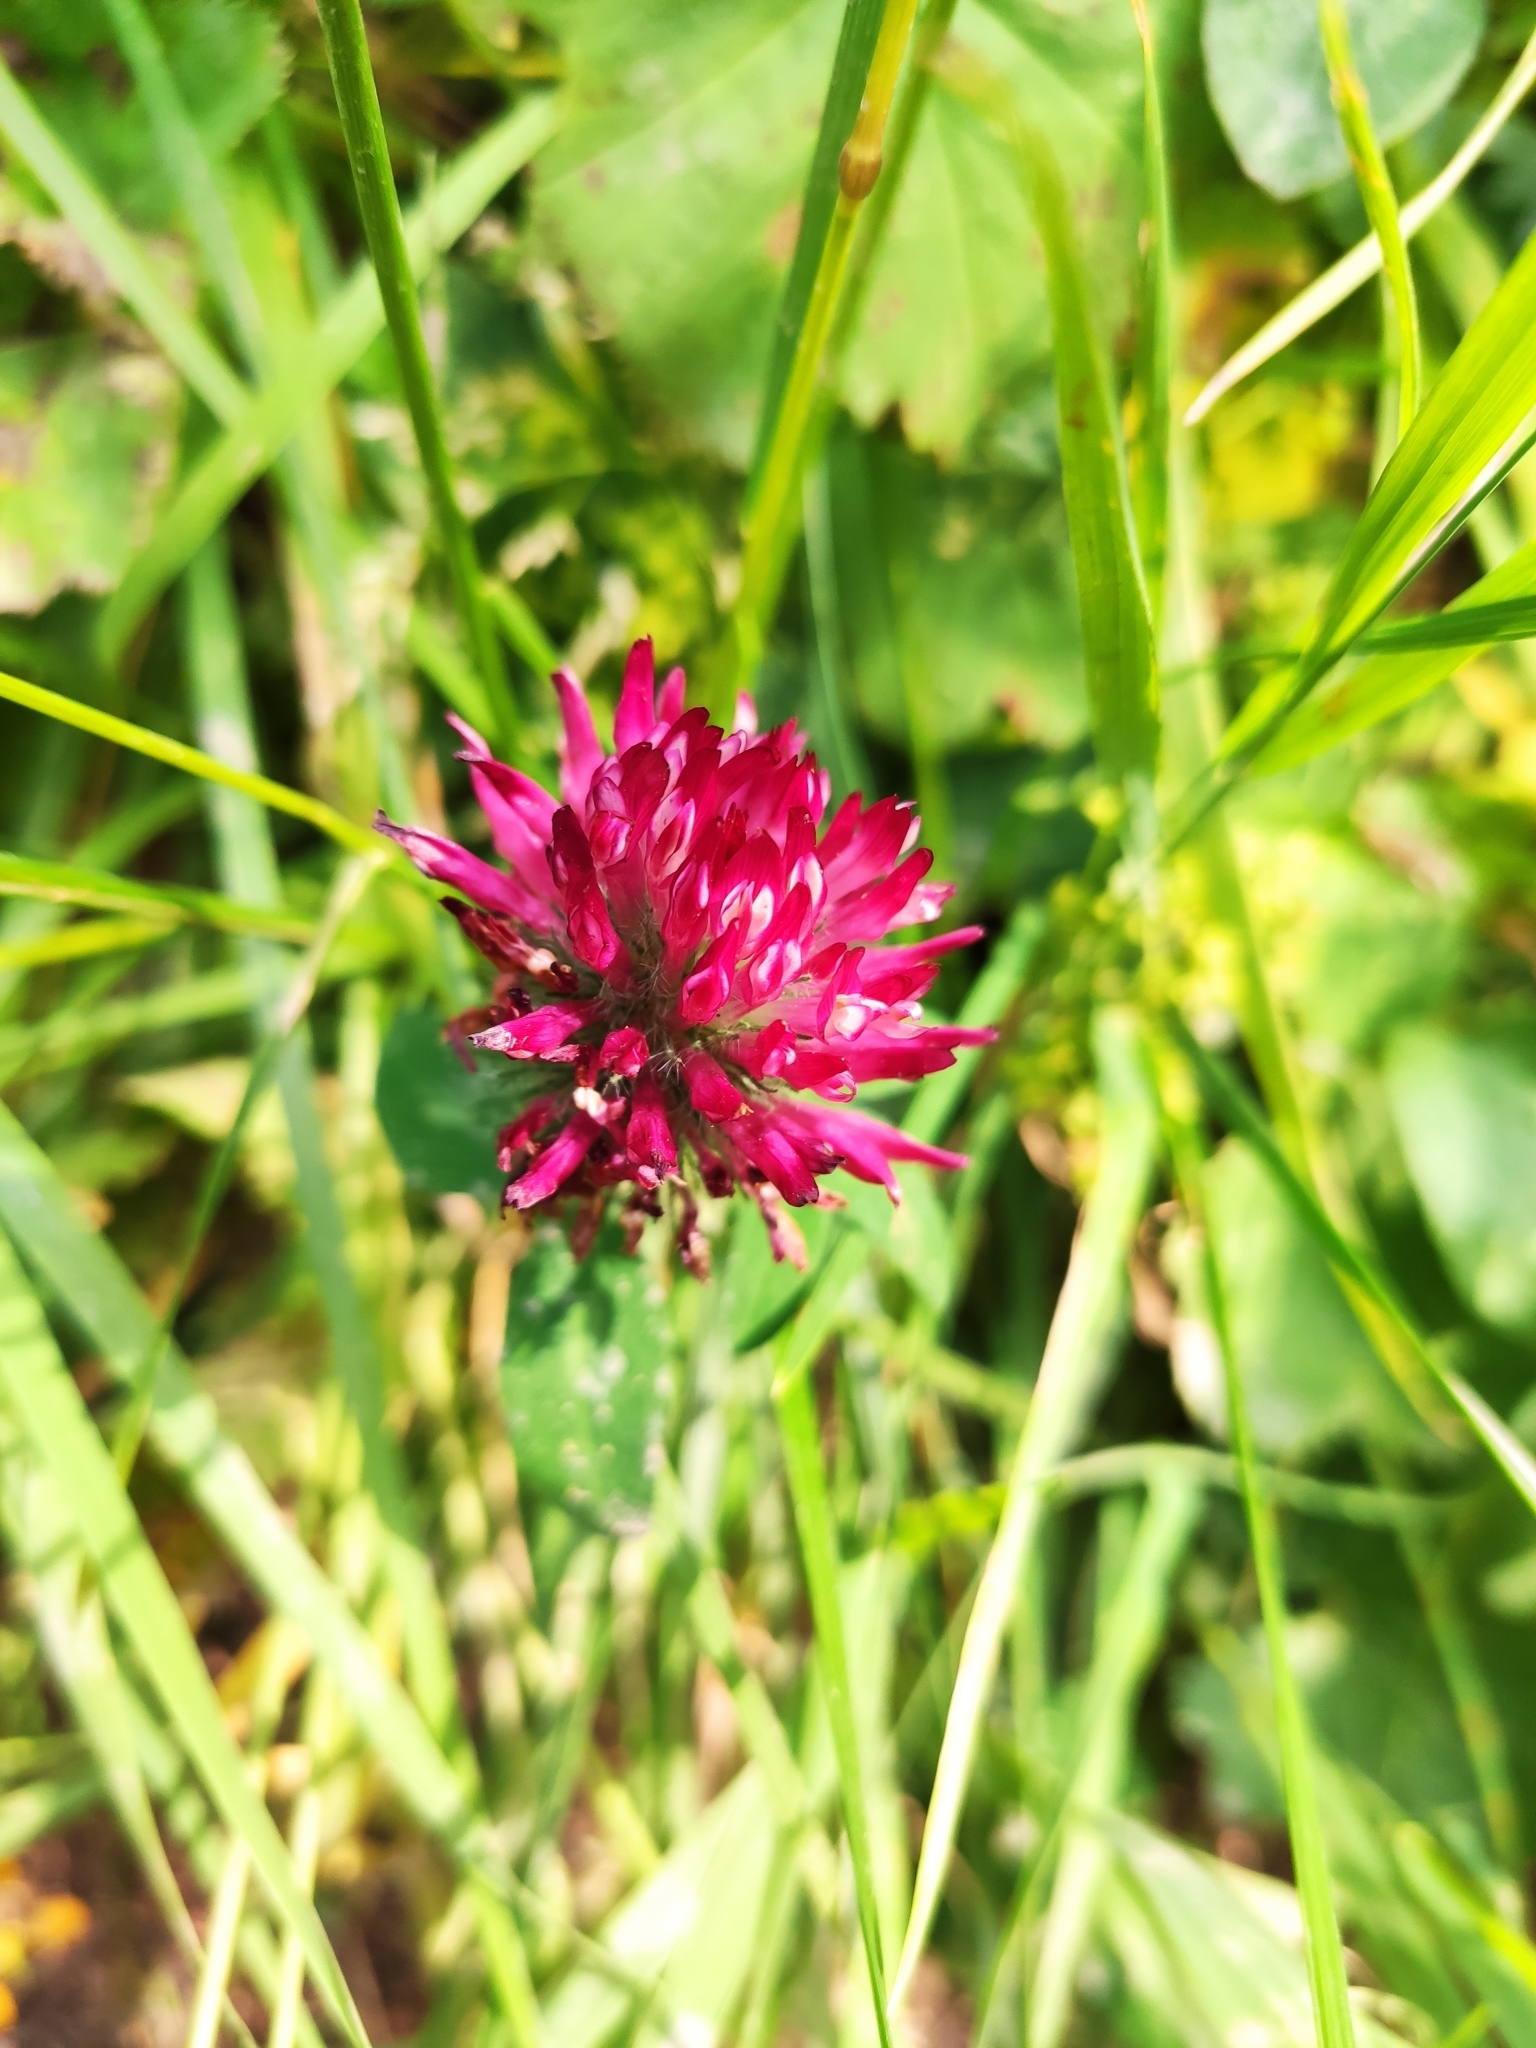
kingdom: Plantae
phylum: Tracheophyta
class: Magnoliopsida
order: Fabales
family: Fabaceae
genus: Trifolium
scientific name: Trifolium pratense
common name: Red clover
